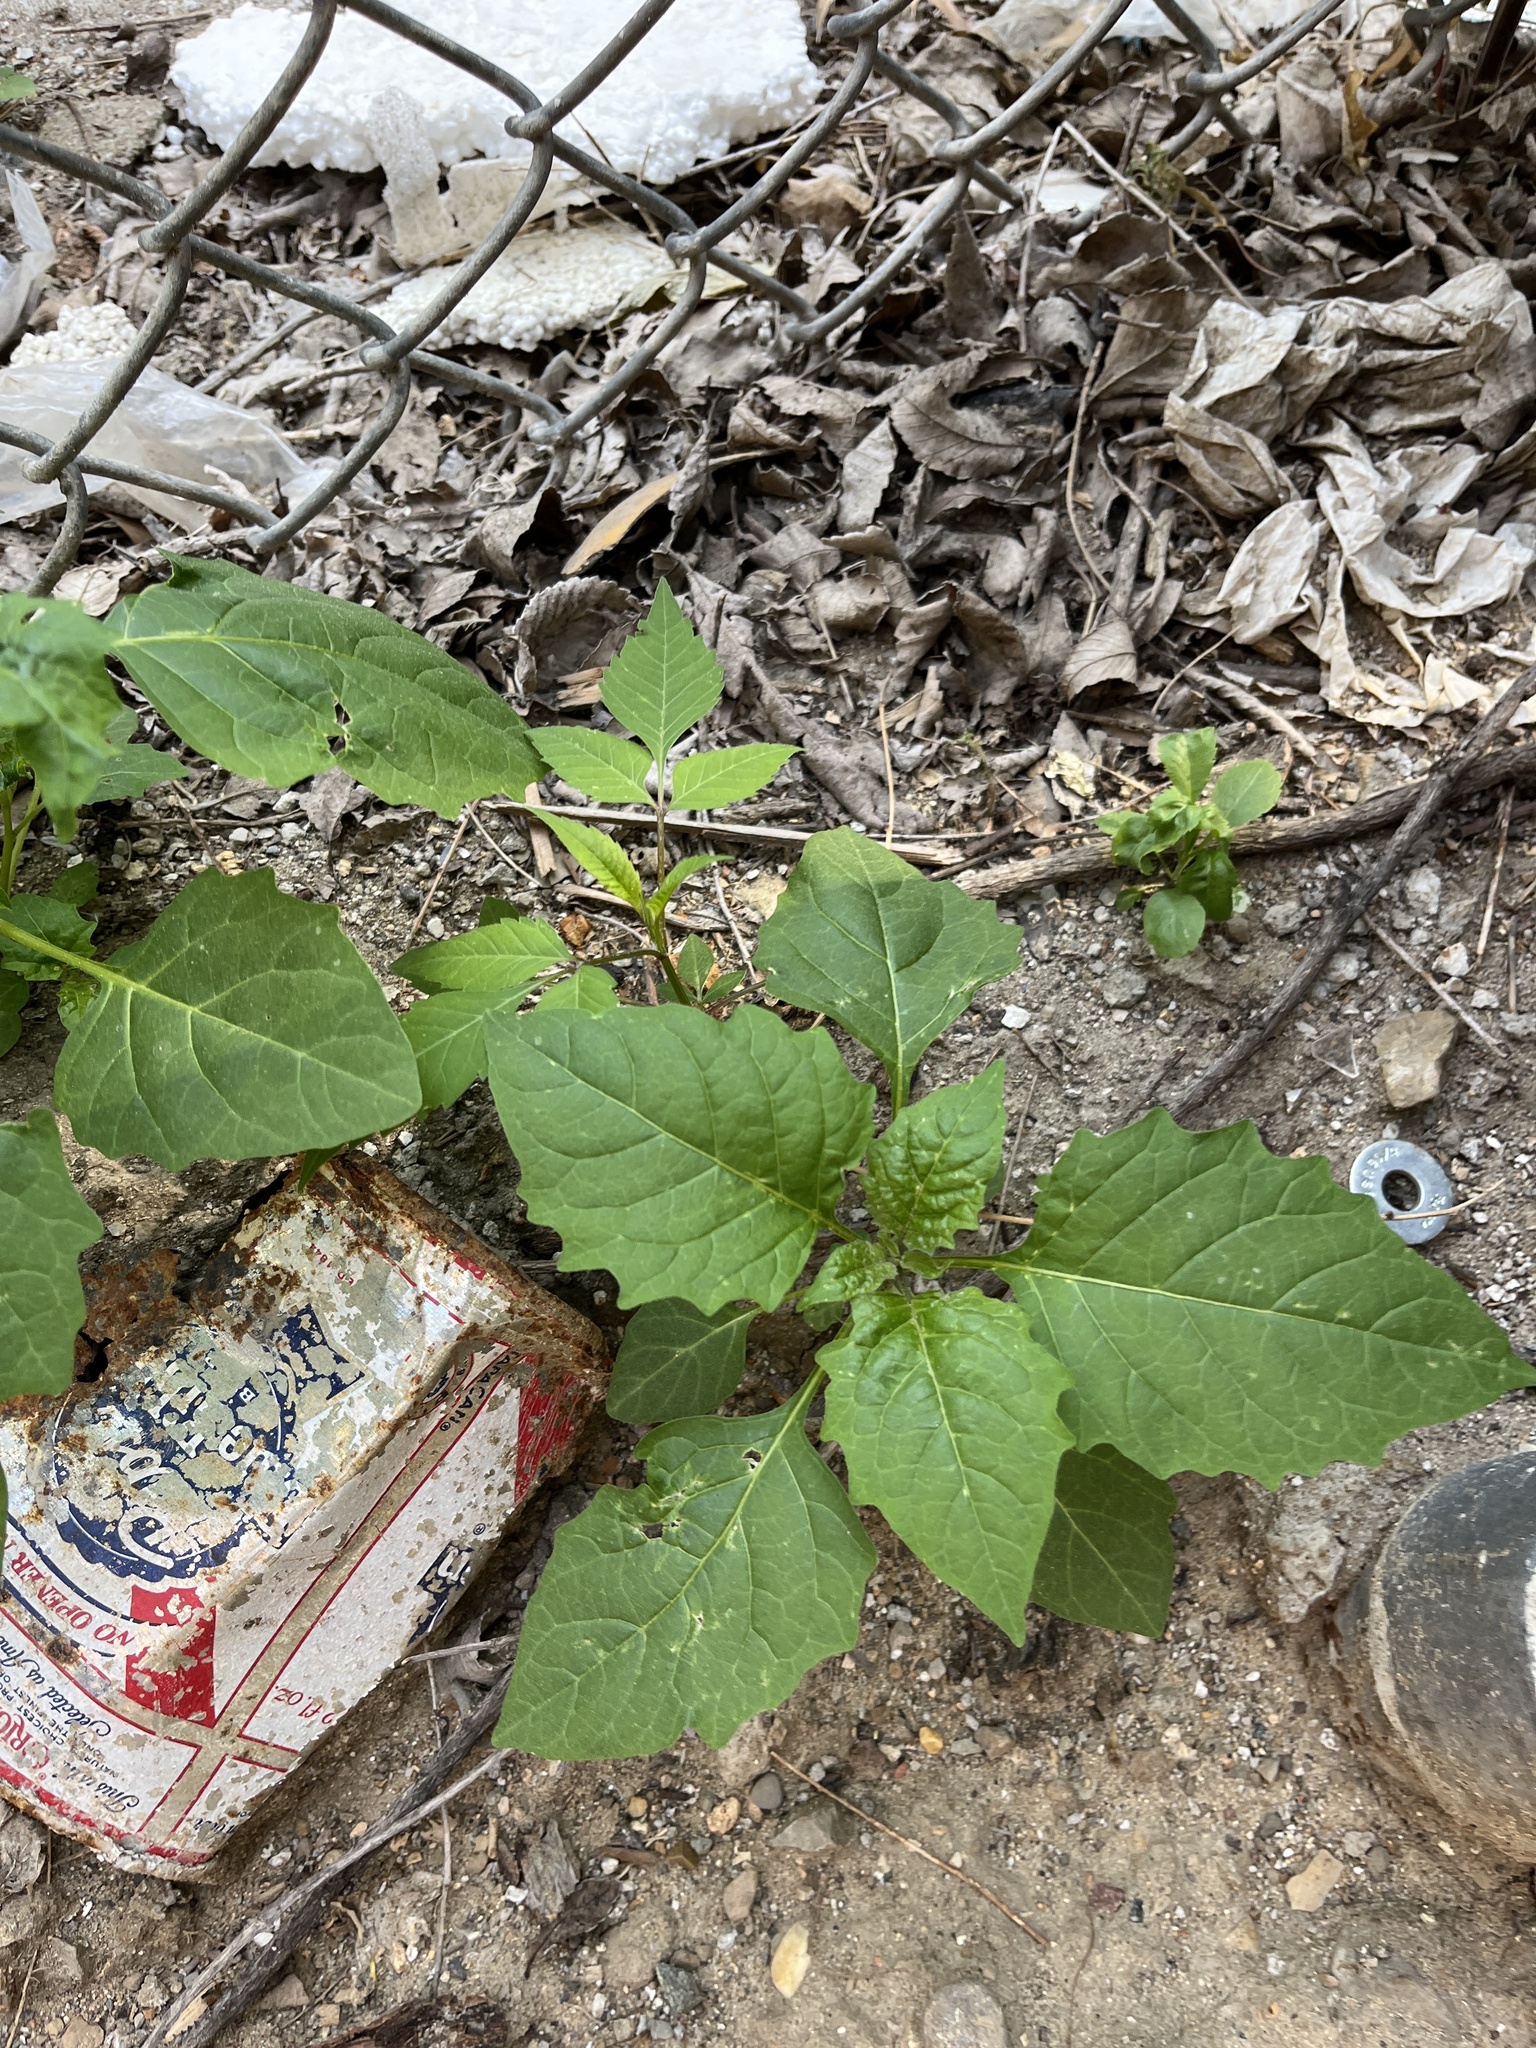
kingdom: Plantae
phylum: Tracheophyta
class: Magnoliopsida
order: Solanales
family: Solanaceae
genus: Solanum
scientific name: Solanum emulans
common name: Eastern black nightshade
